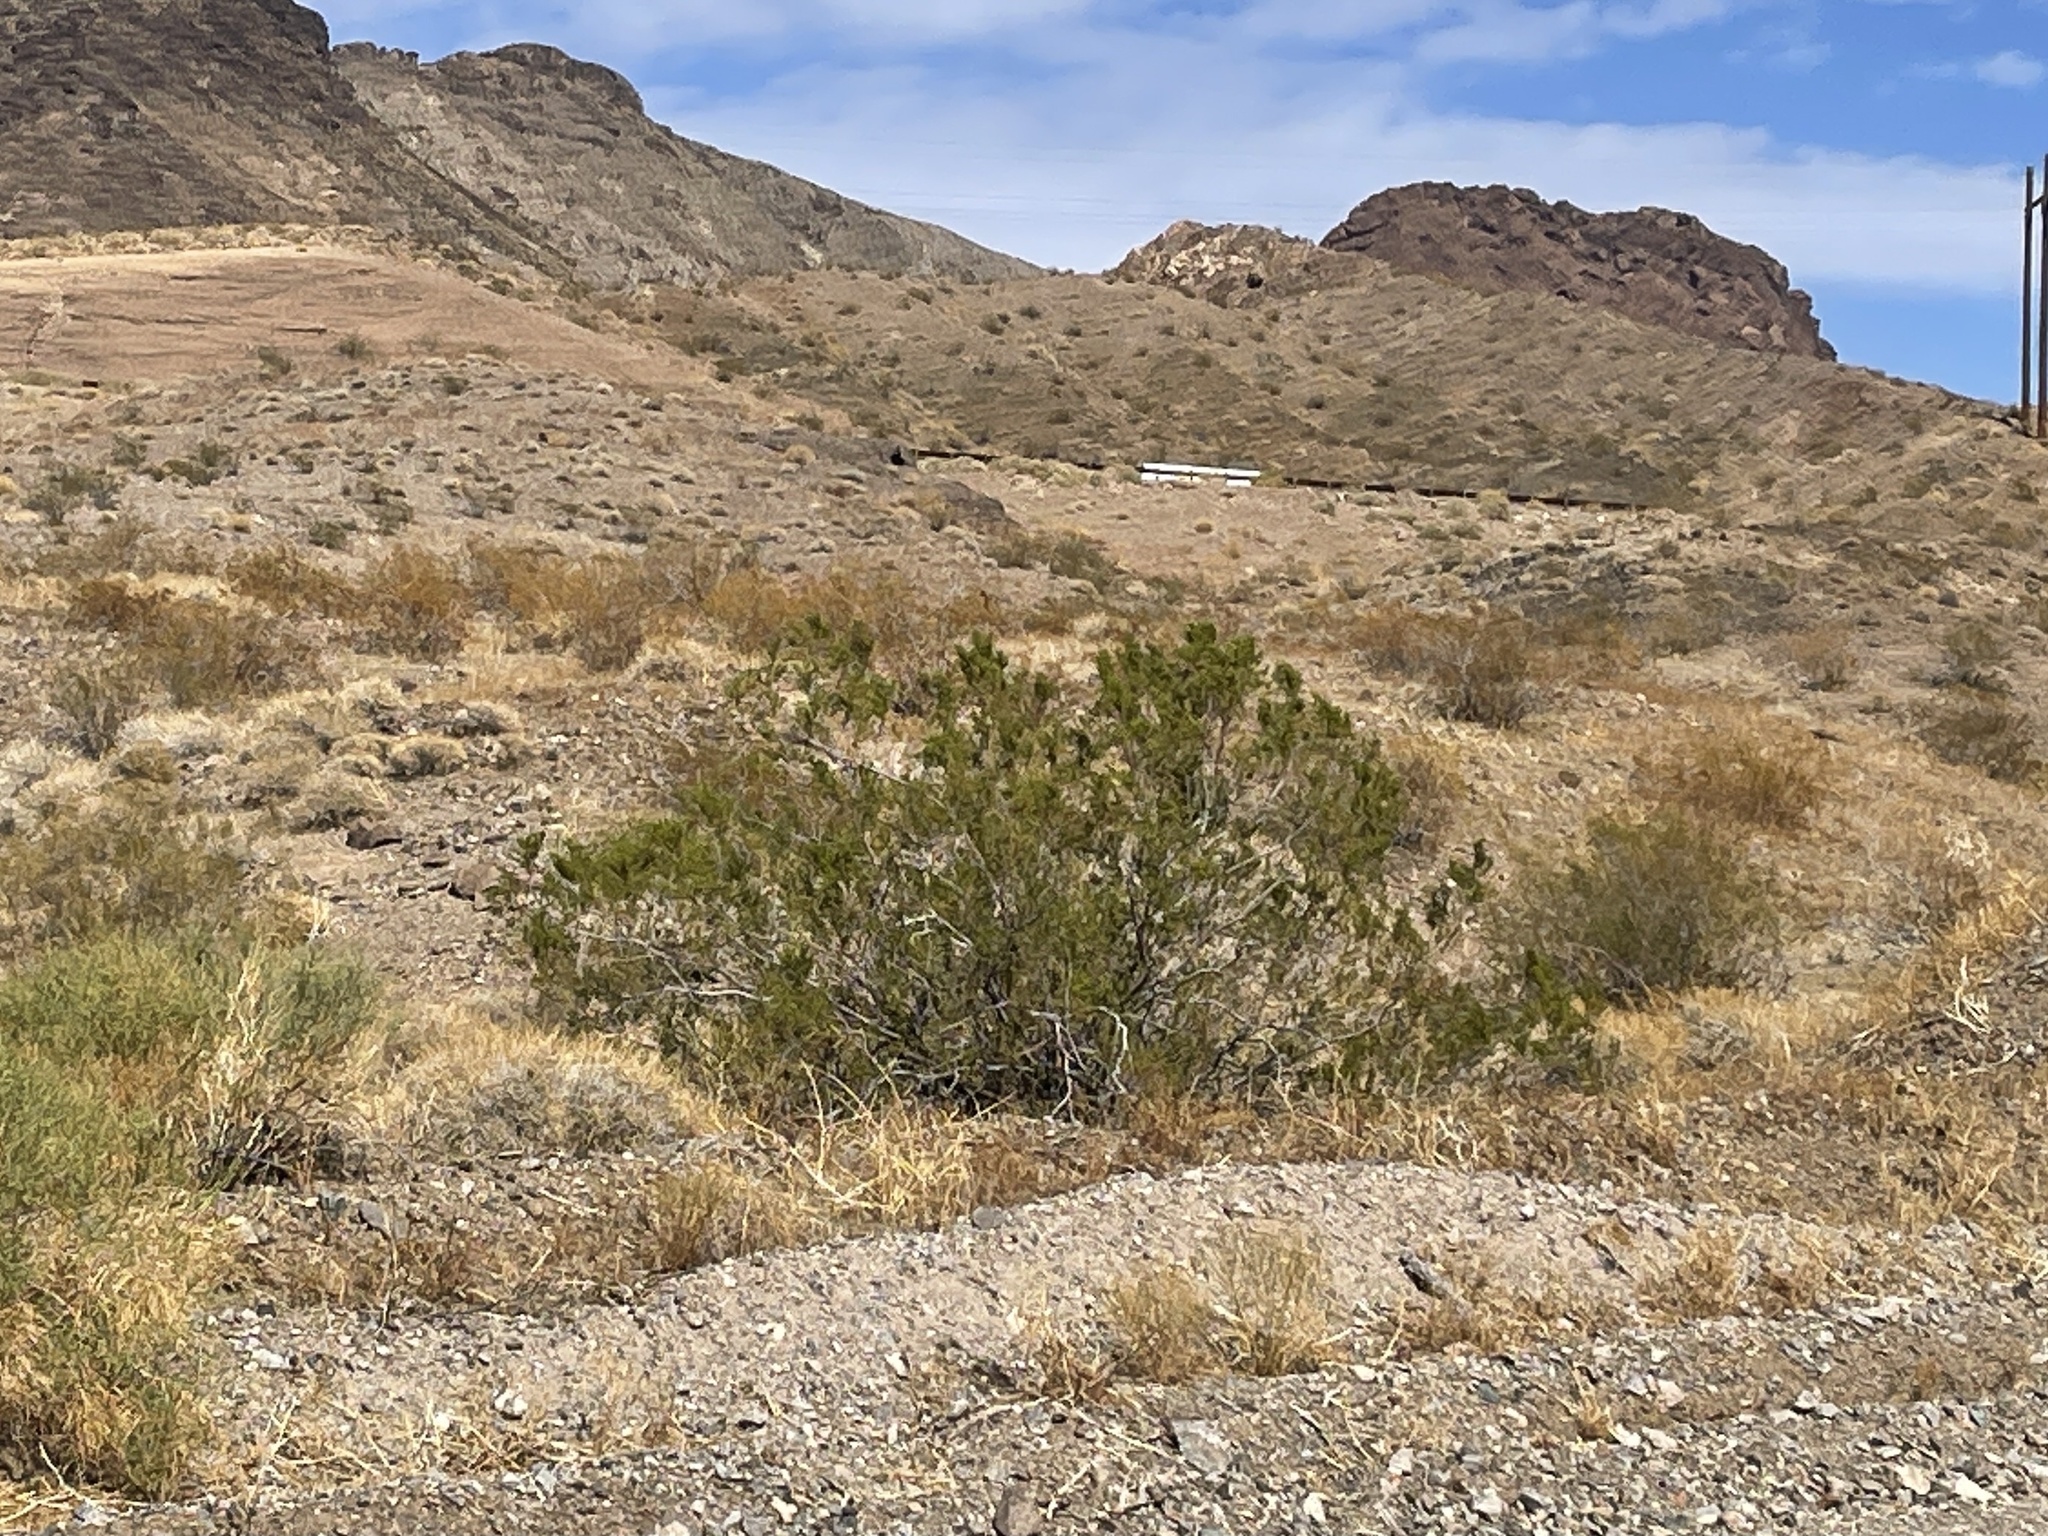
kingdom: Plantae
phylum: Tracheophyta
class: Magnoliopsida
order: Zygophyllales
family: Zygophyllaceae
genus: Larrea
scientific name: Larrea tridentata
